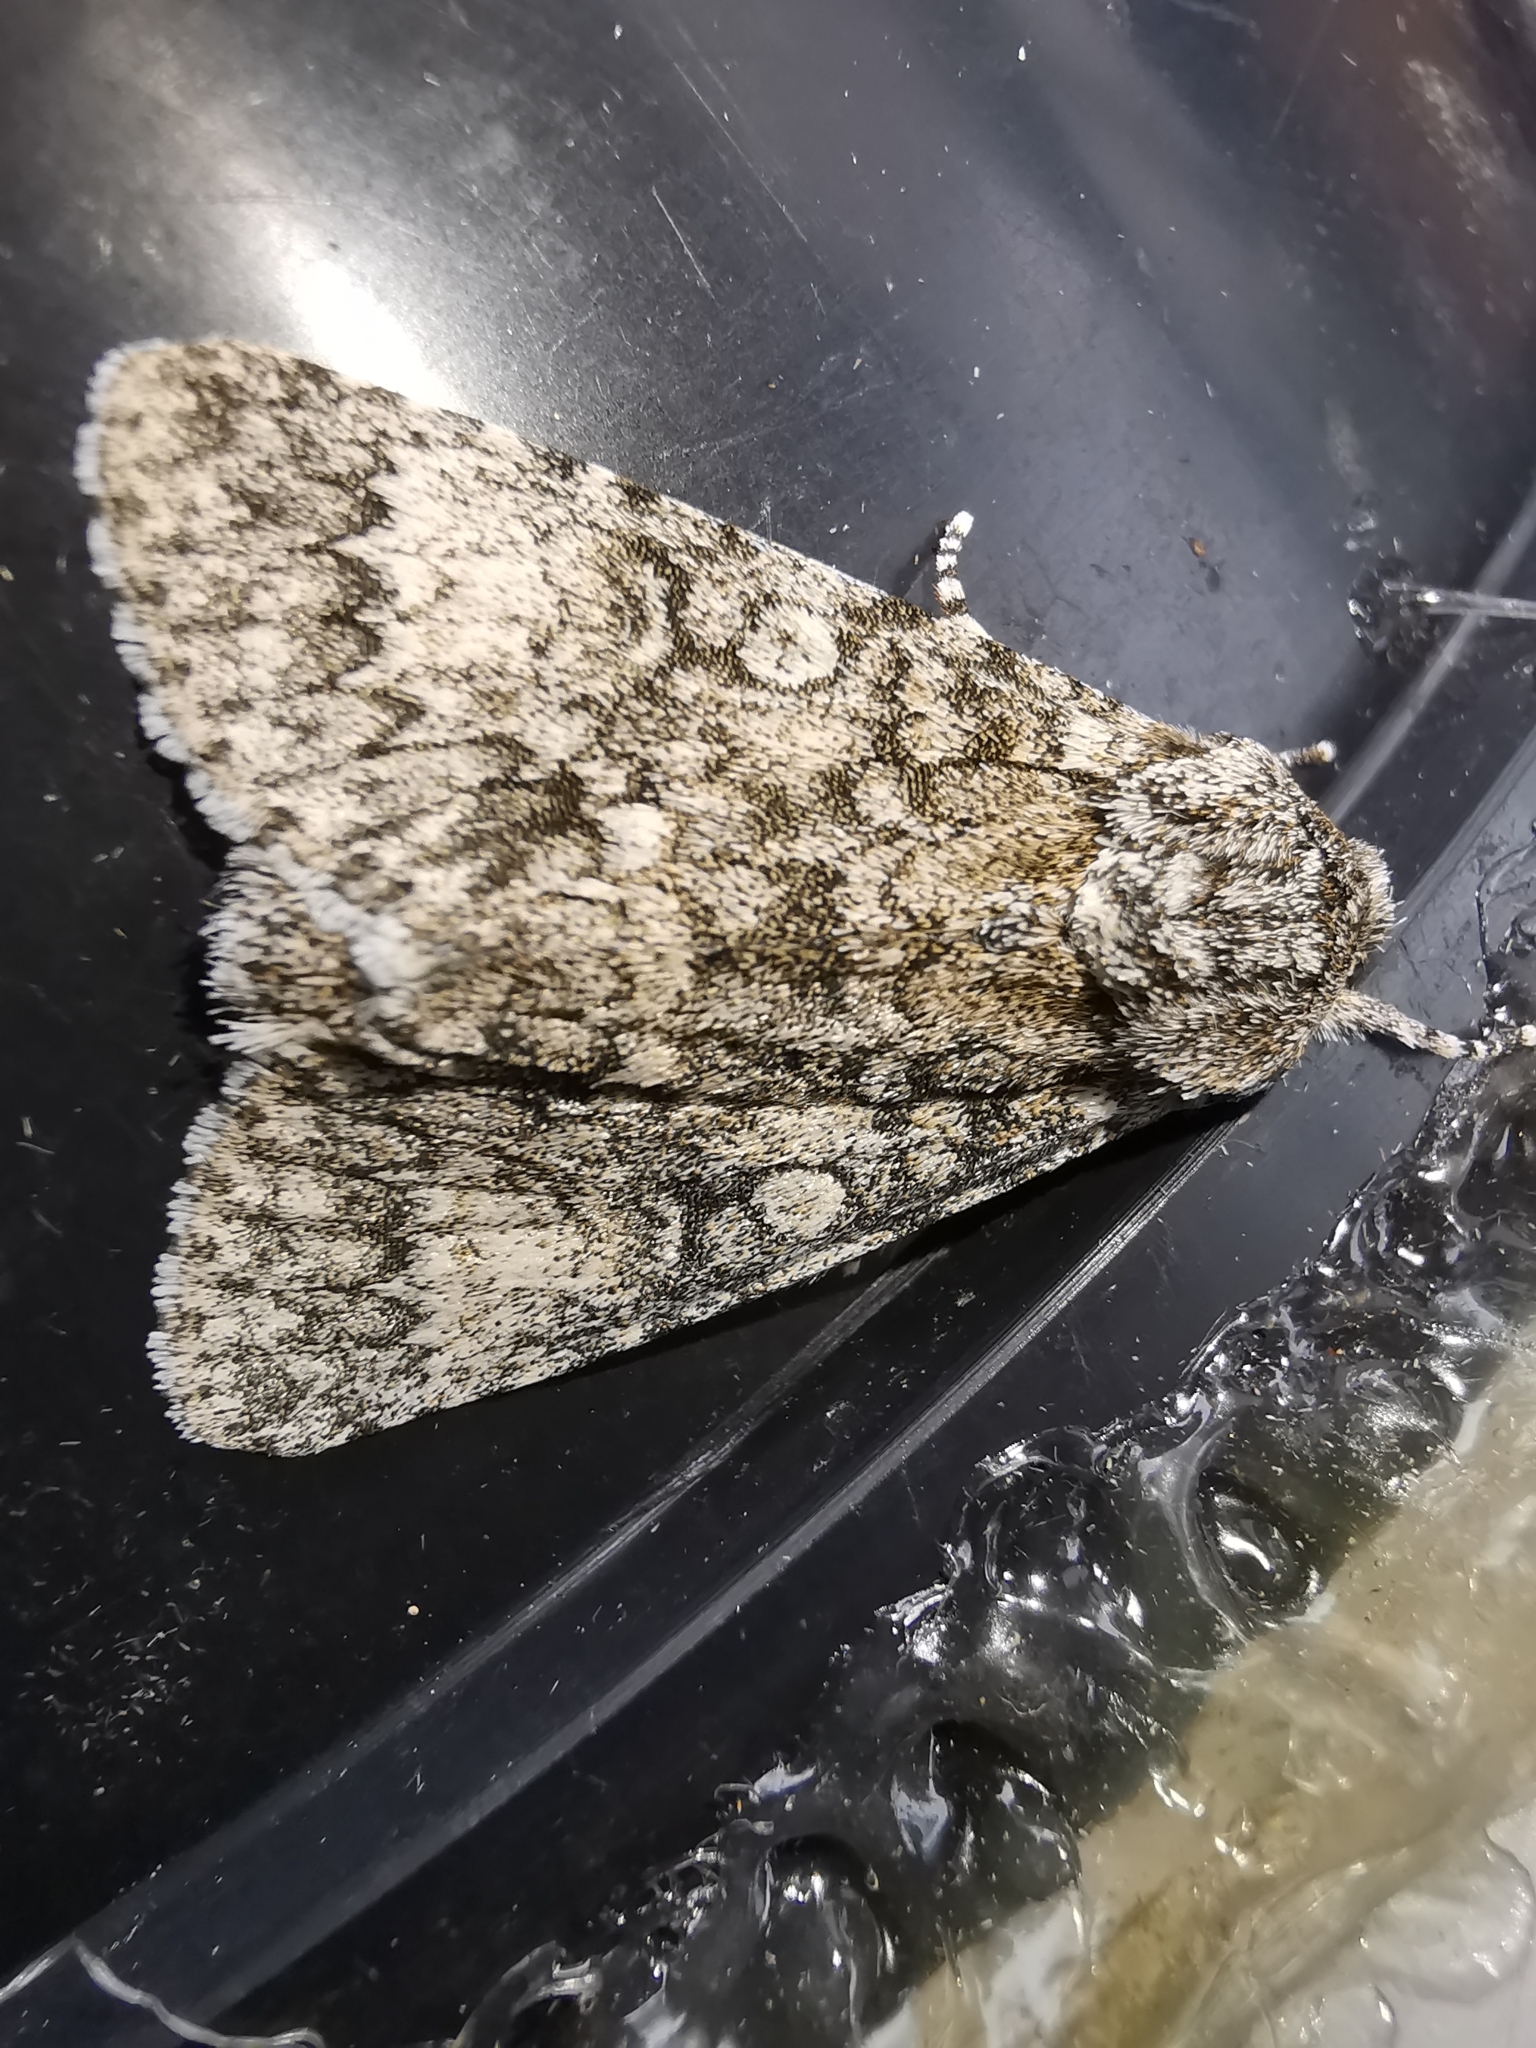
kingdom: Animalia
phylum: Arthropoda
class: Insecta
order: Lepidoptera
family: Noctuidae
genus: Acronicta
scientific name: Acronicta megacephala
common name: Poplar grey
